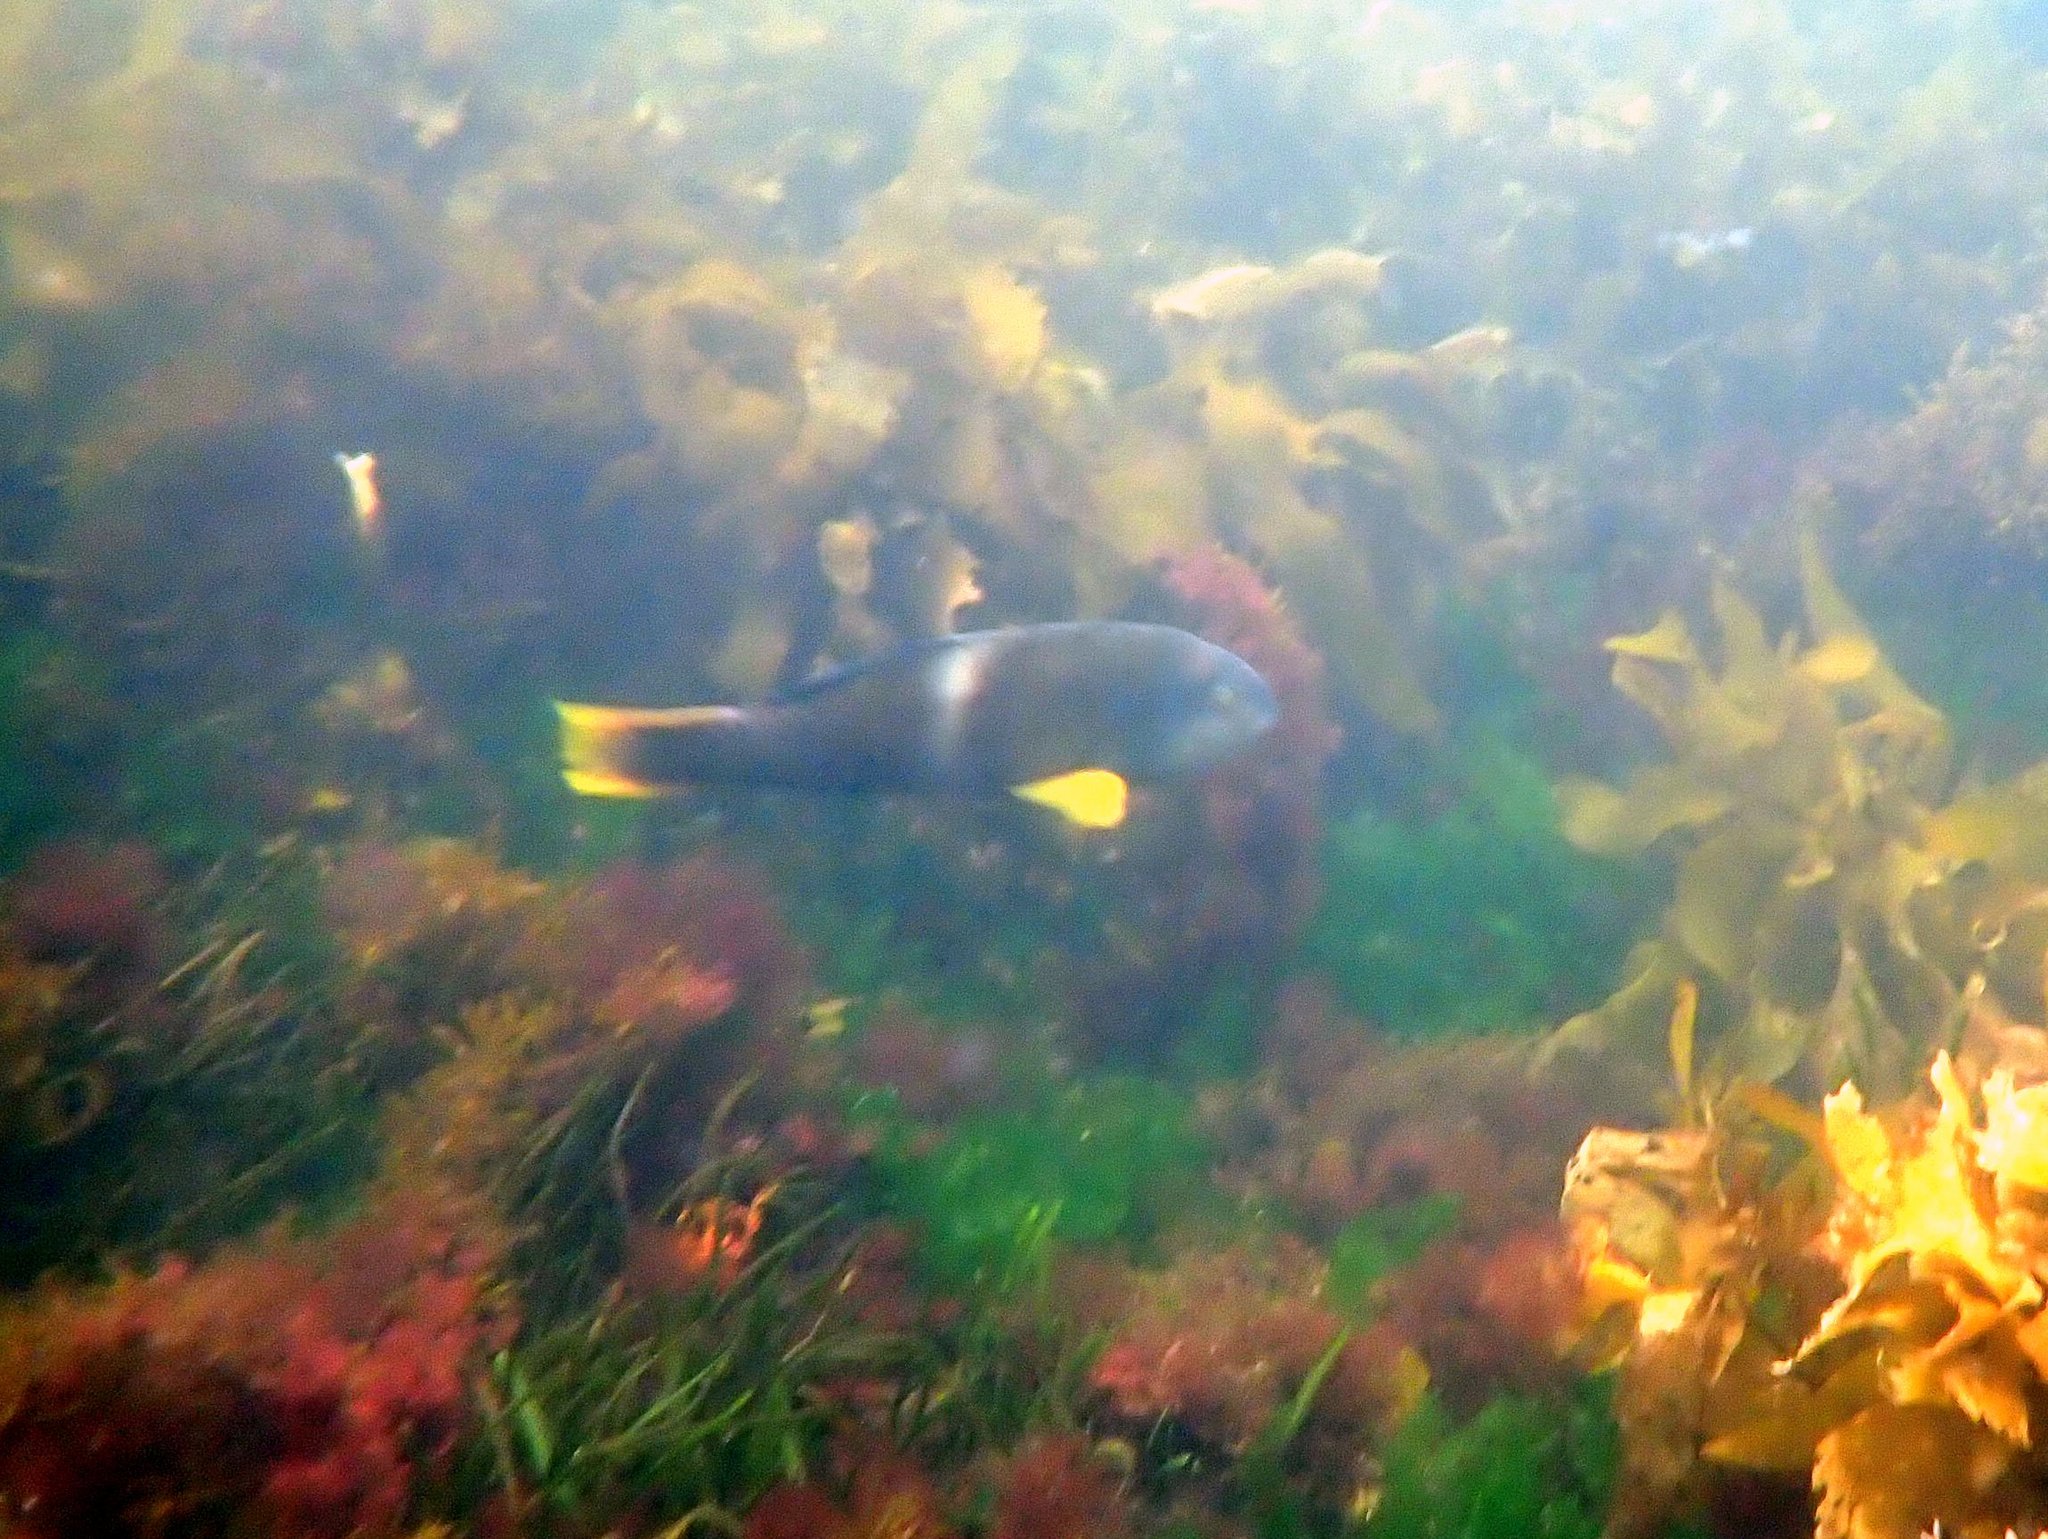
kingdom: Animalia
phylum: Chordata
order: Perciformes
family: Labridae
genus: Notolabrus
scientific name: Notolabrus tetricus
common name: Blue-throated parrotfish
